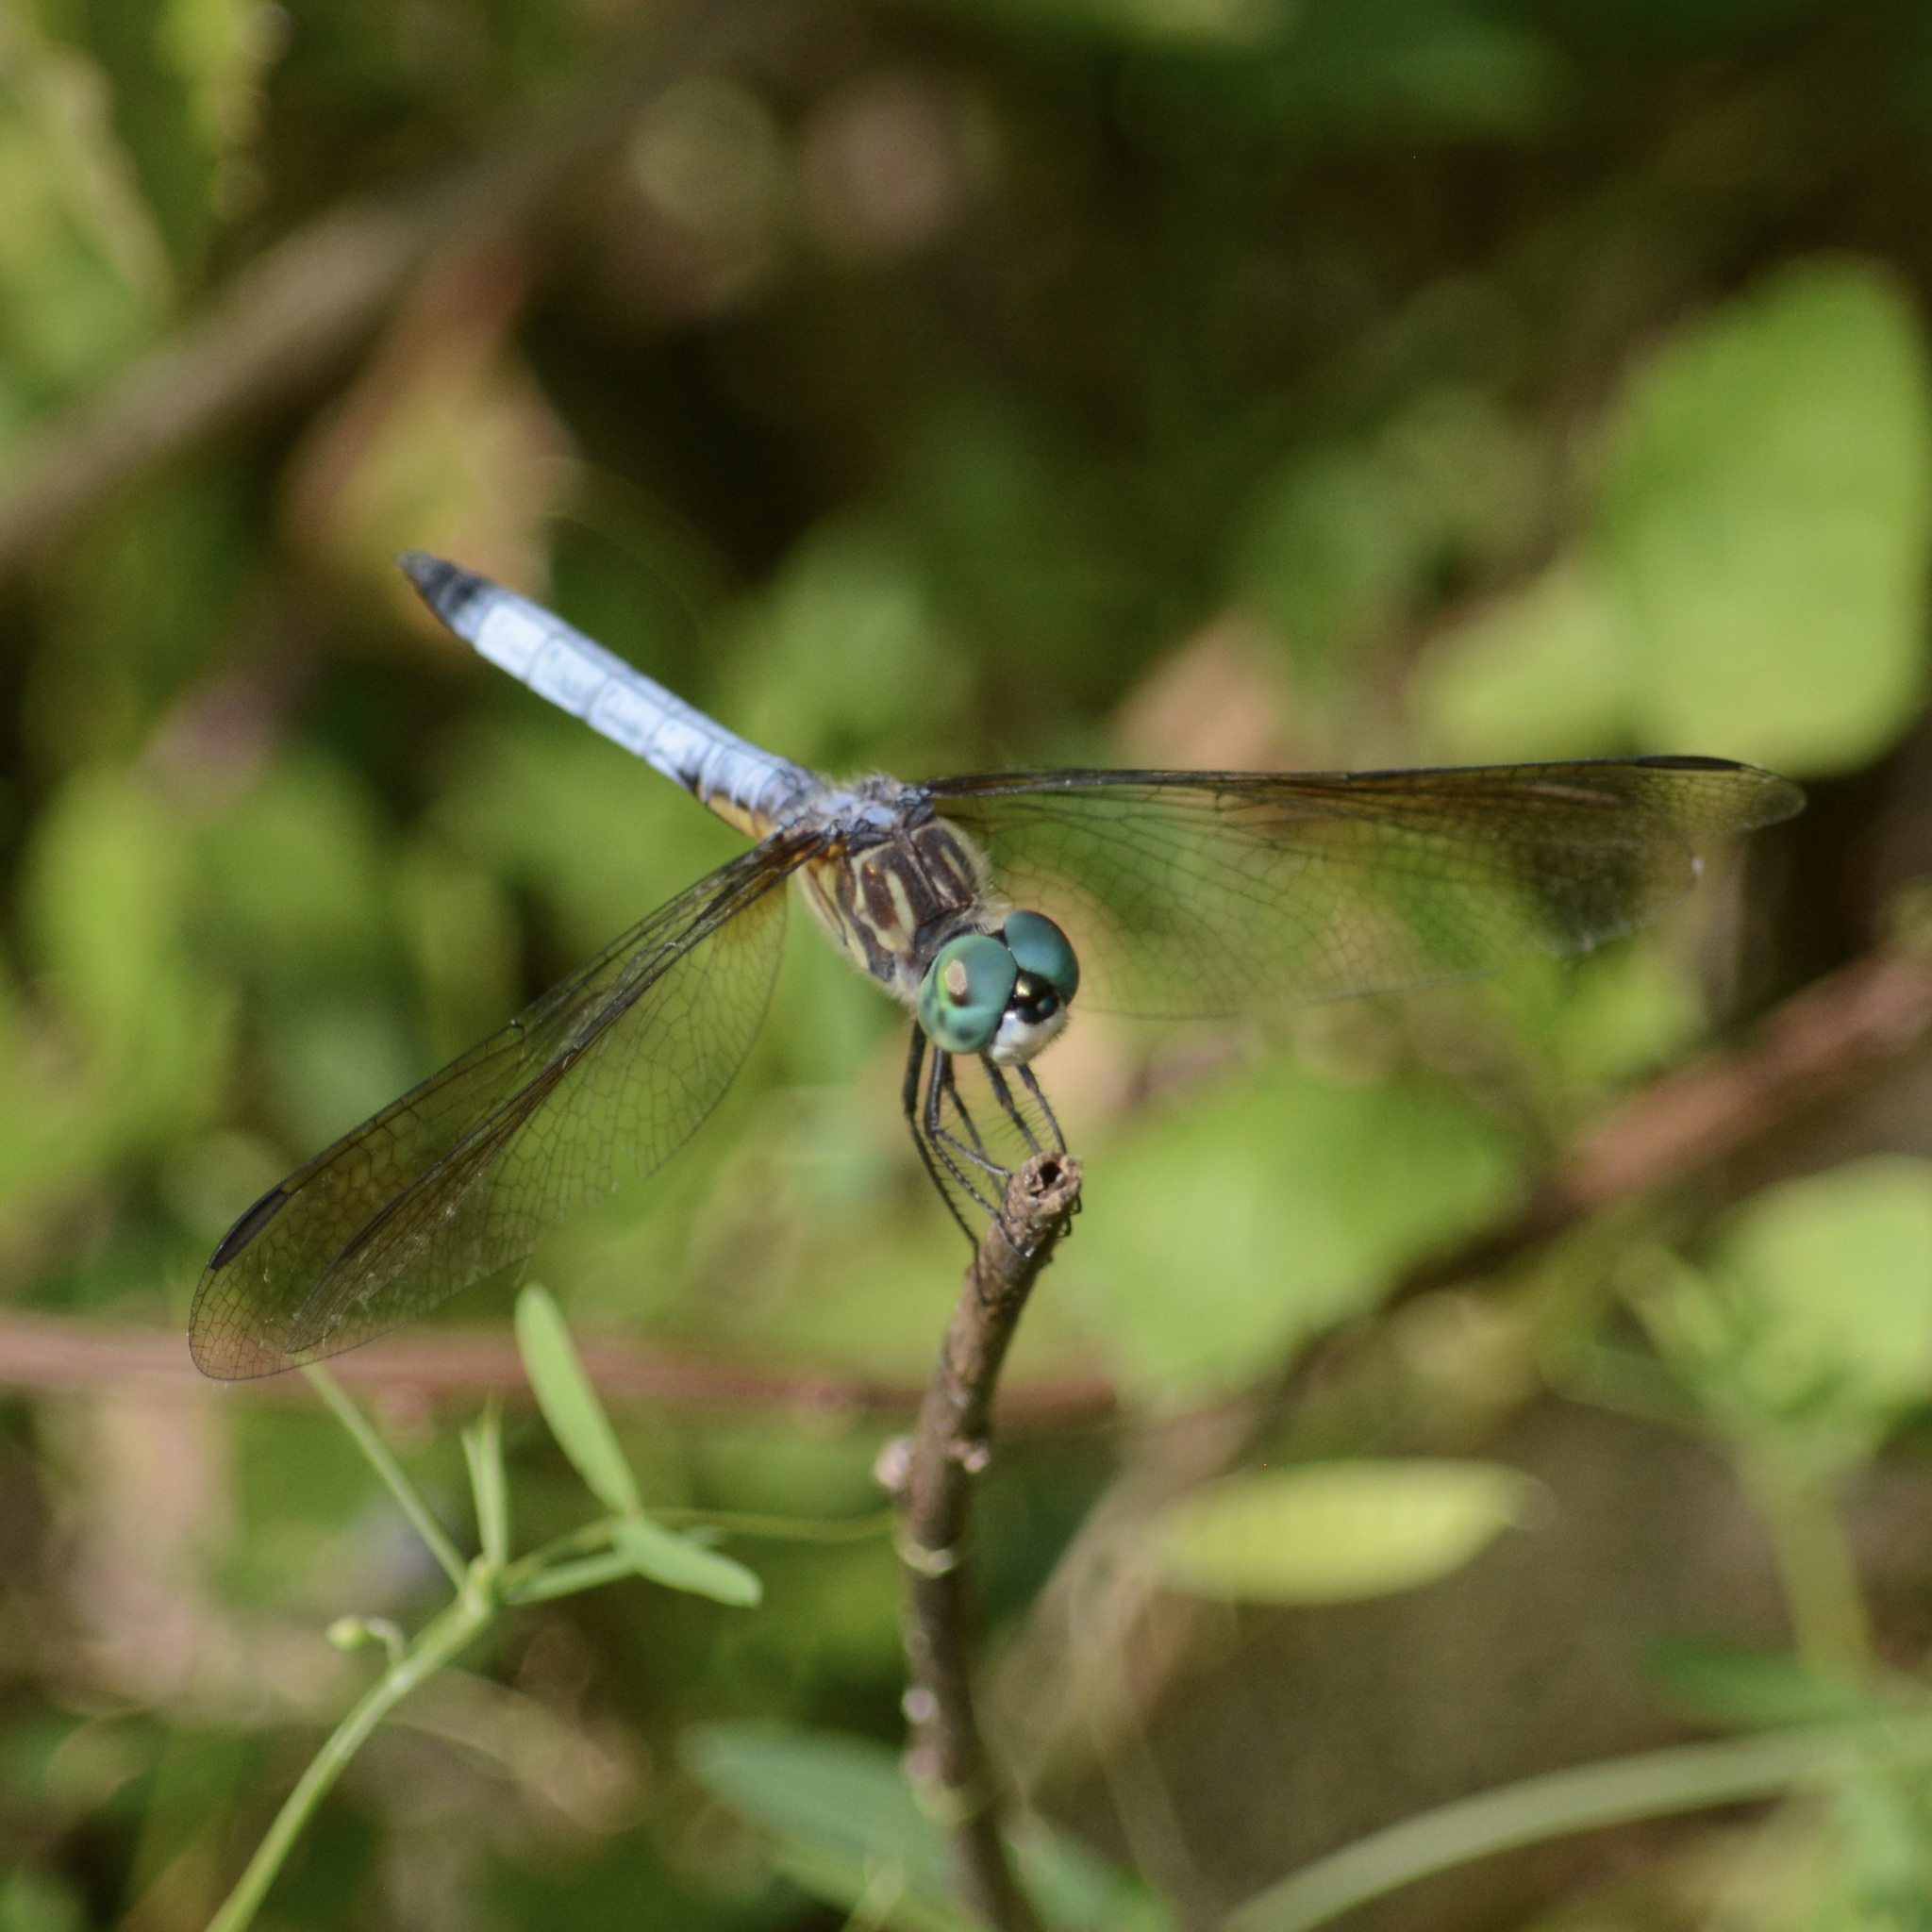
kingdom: Animalia
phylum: Arthropoda
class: Insecta
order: Odonata
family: Libellulidae
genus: Pachydiplax
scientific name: Pachydiplax longipennis
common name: Blue dasher
